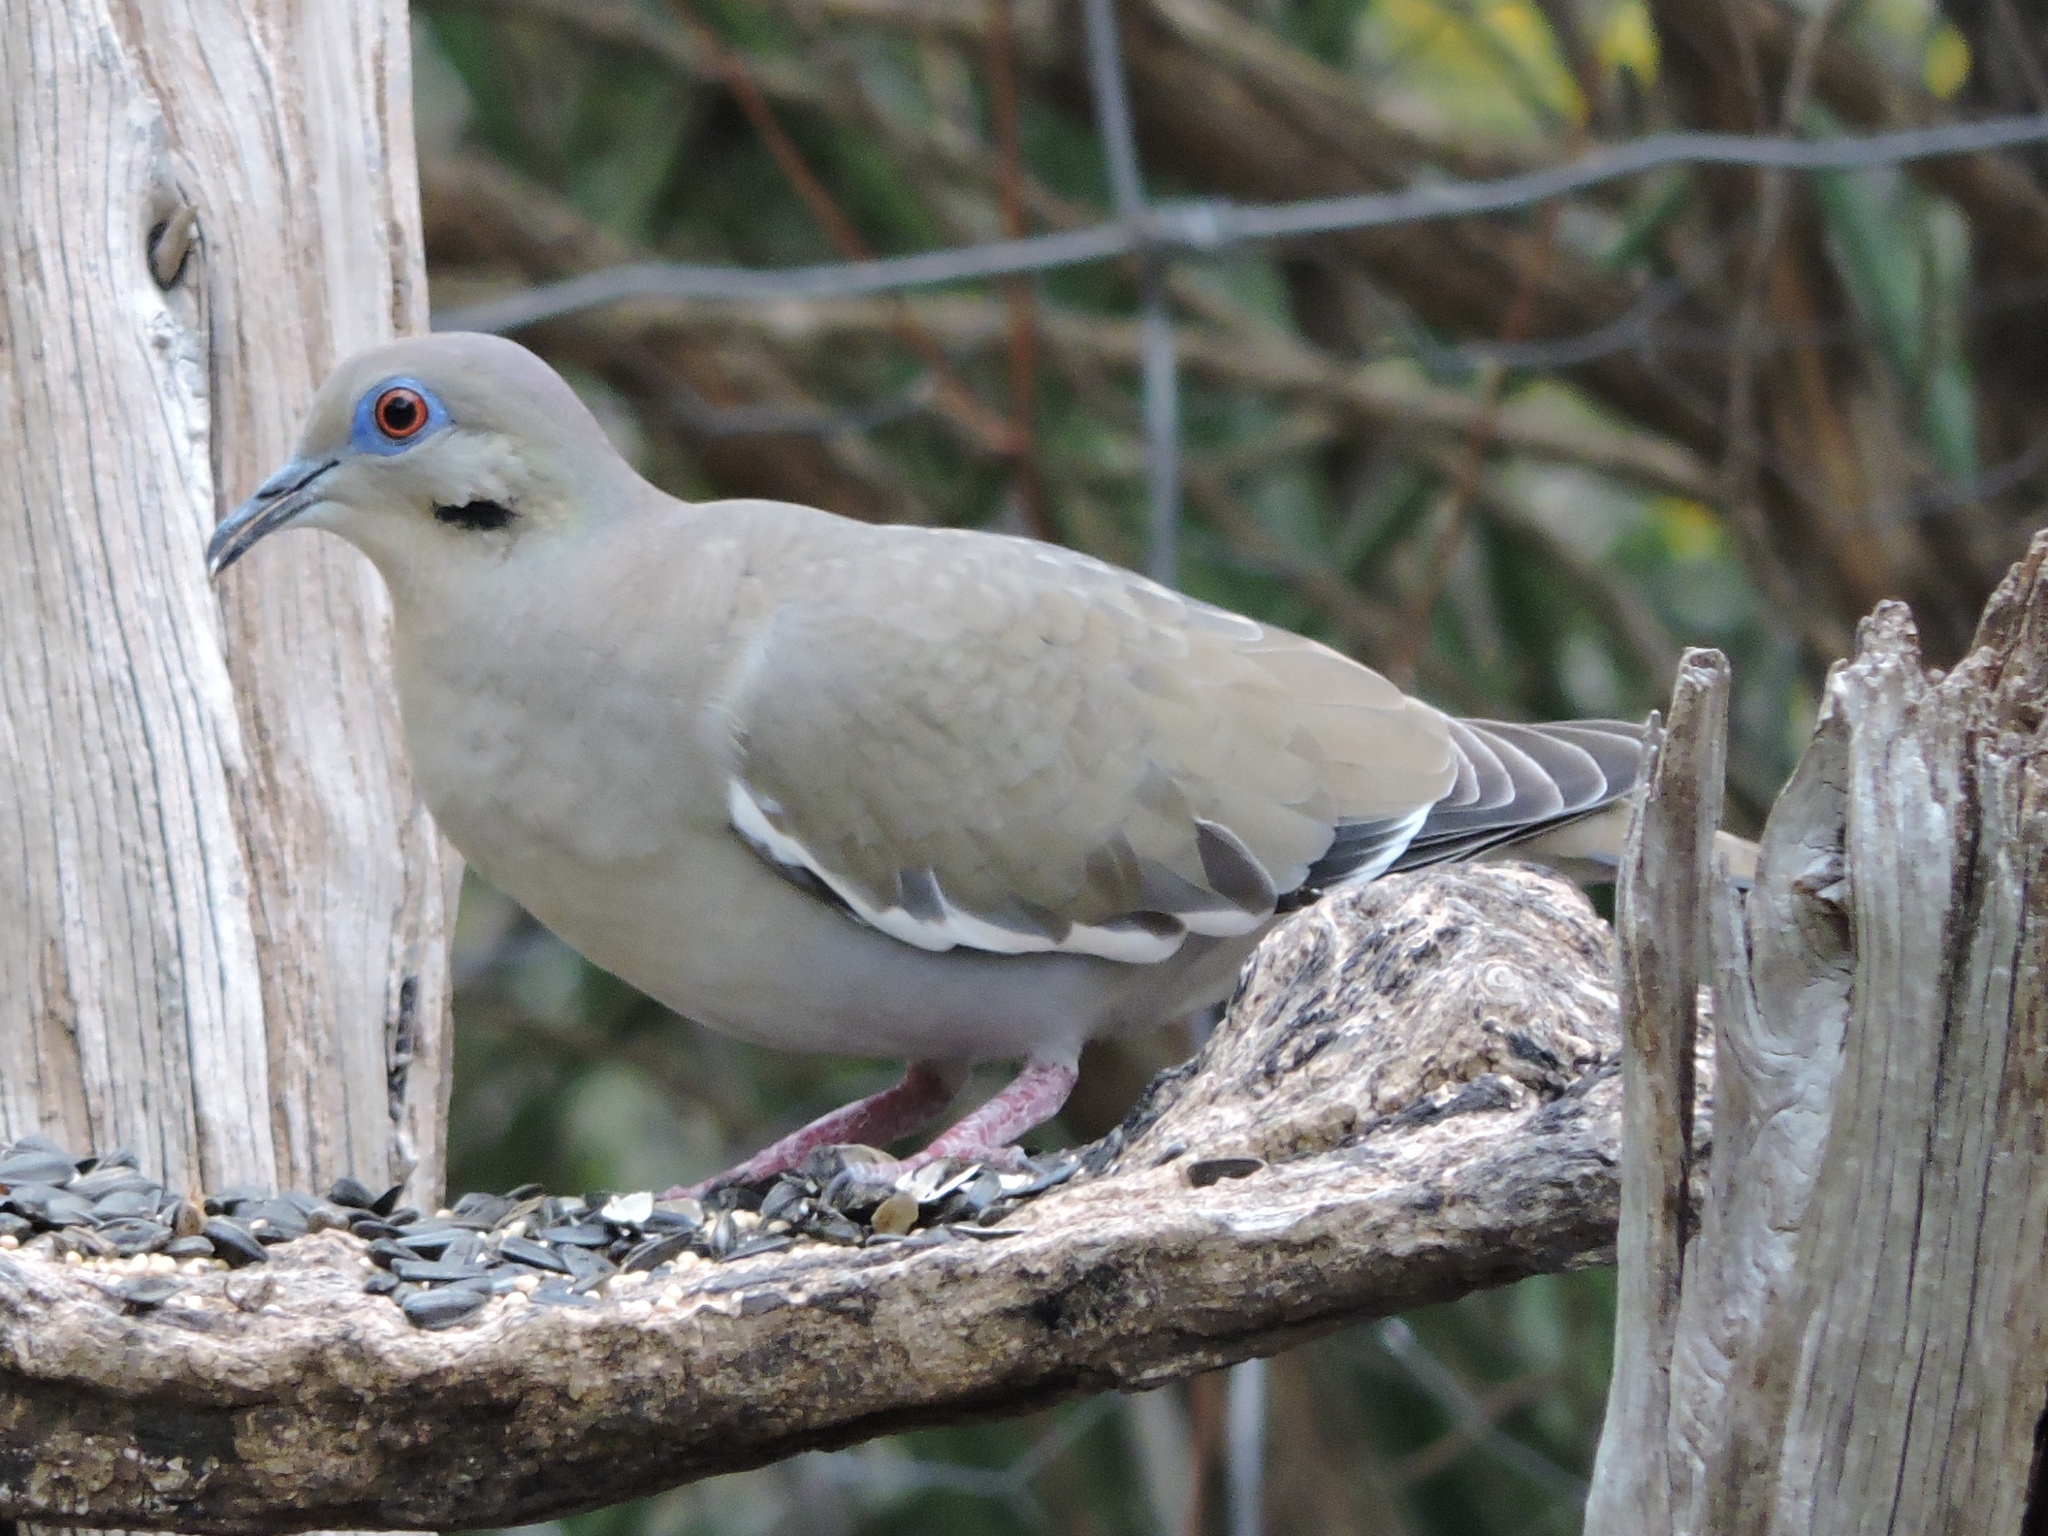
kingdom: Animalia
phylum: Chordata
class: Aves
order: Columbiformes
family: Columbidae
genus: Zenaida
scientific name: Zenaida asiatica
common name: White-winged dove
